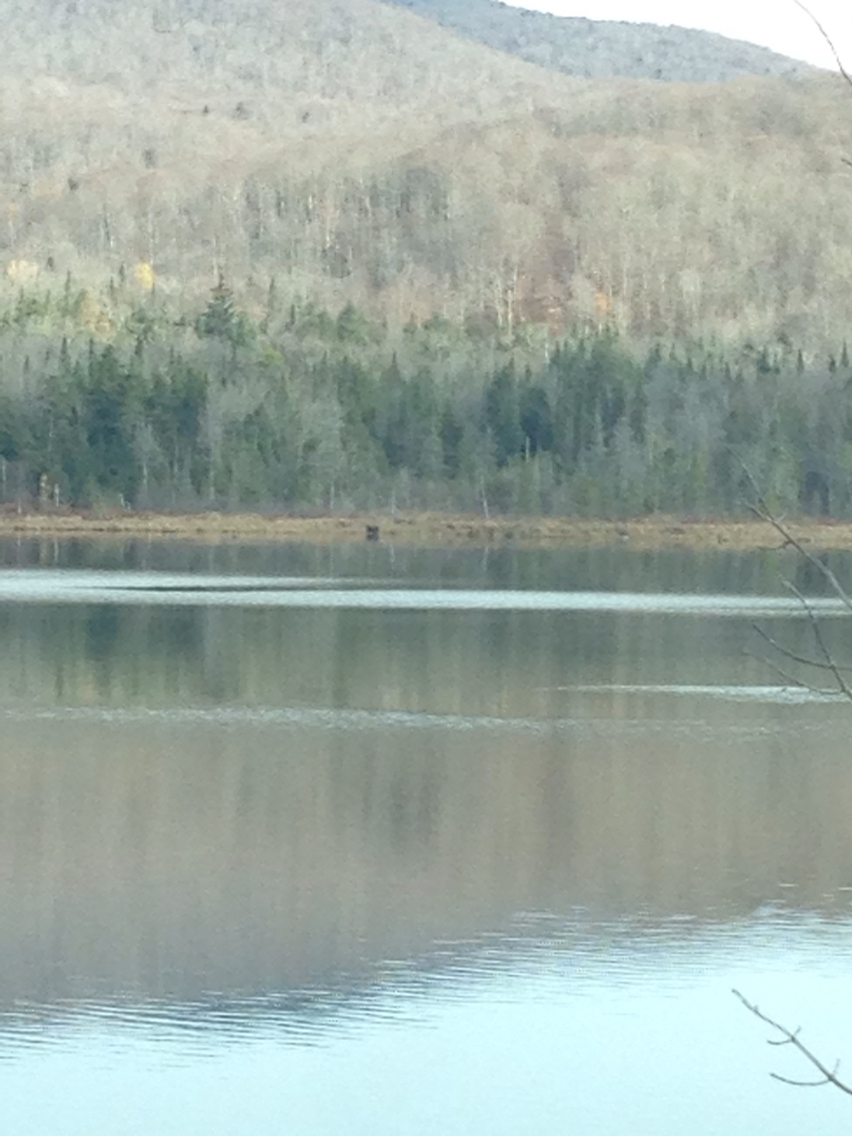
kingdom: Animalia
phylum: Chordata
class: Mammalia
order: Artiodactyla
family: Cervidae
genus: Alces
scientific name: Alces alces
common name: Moose
